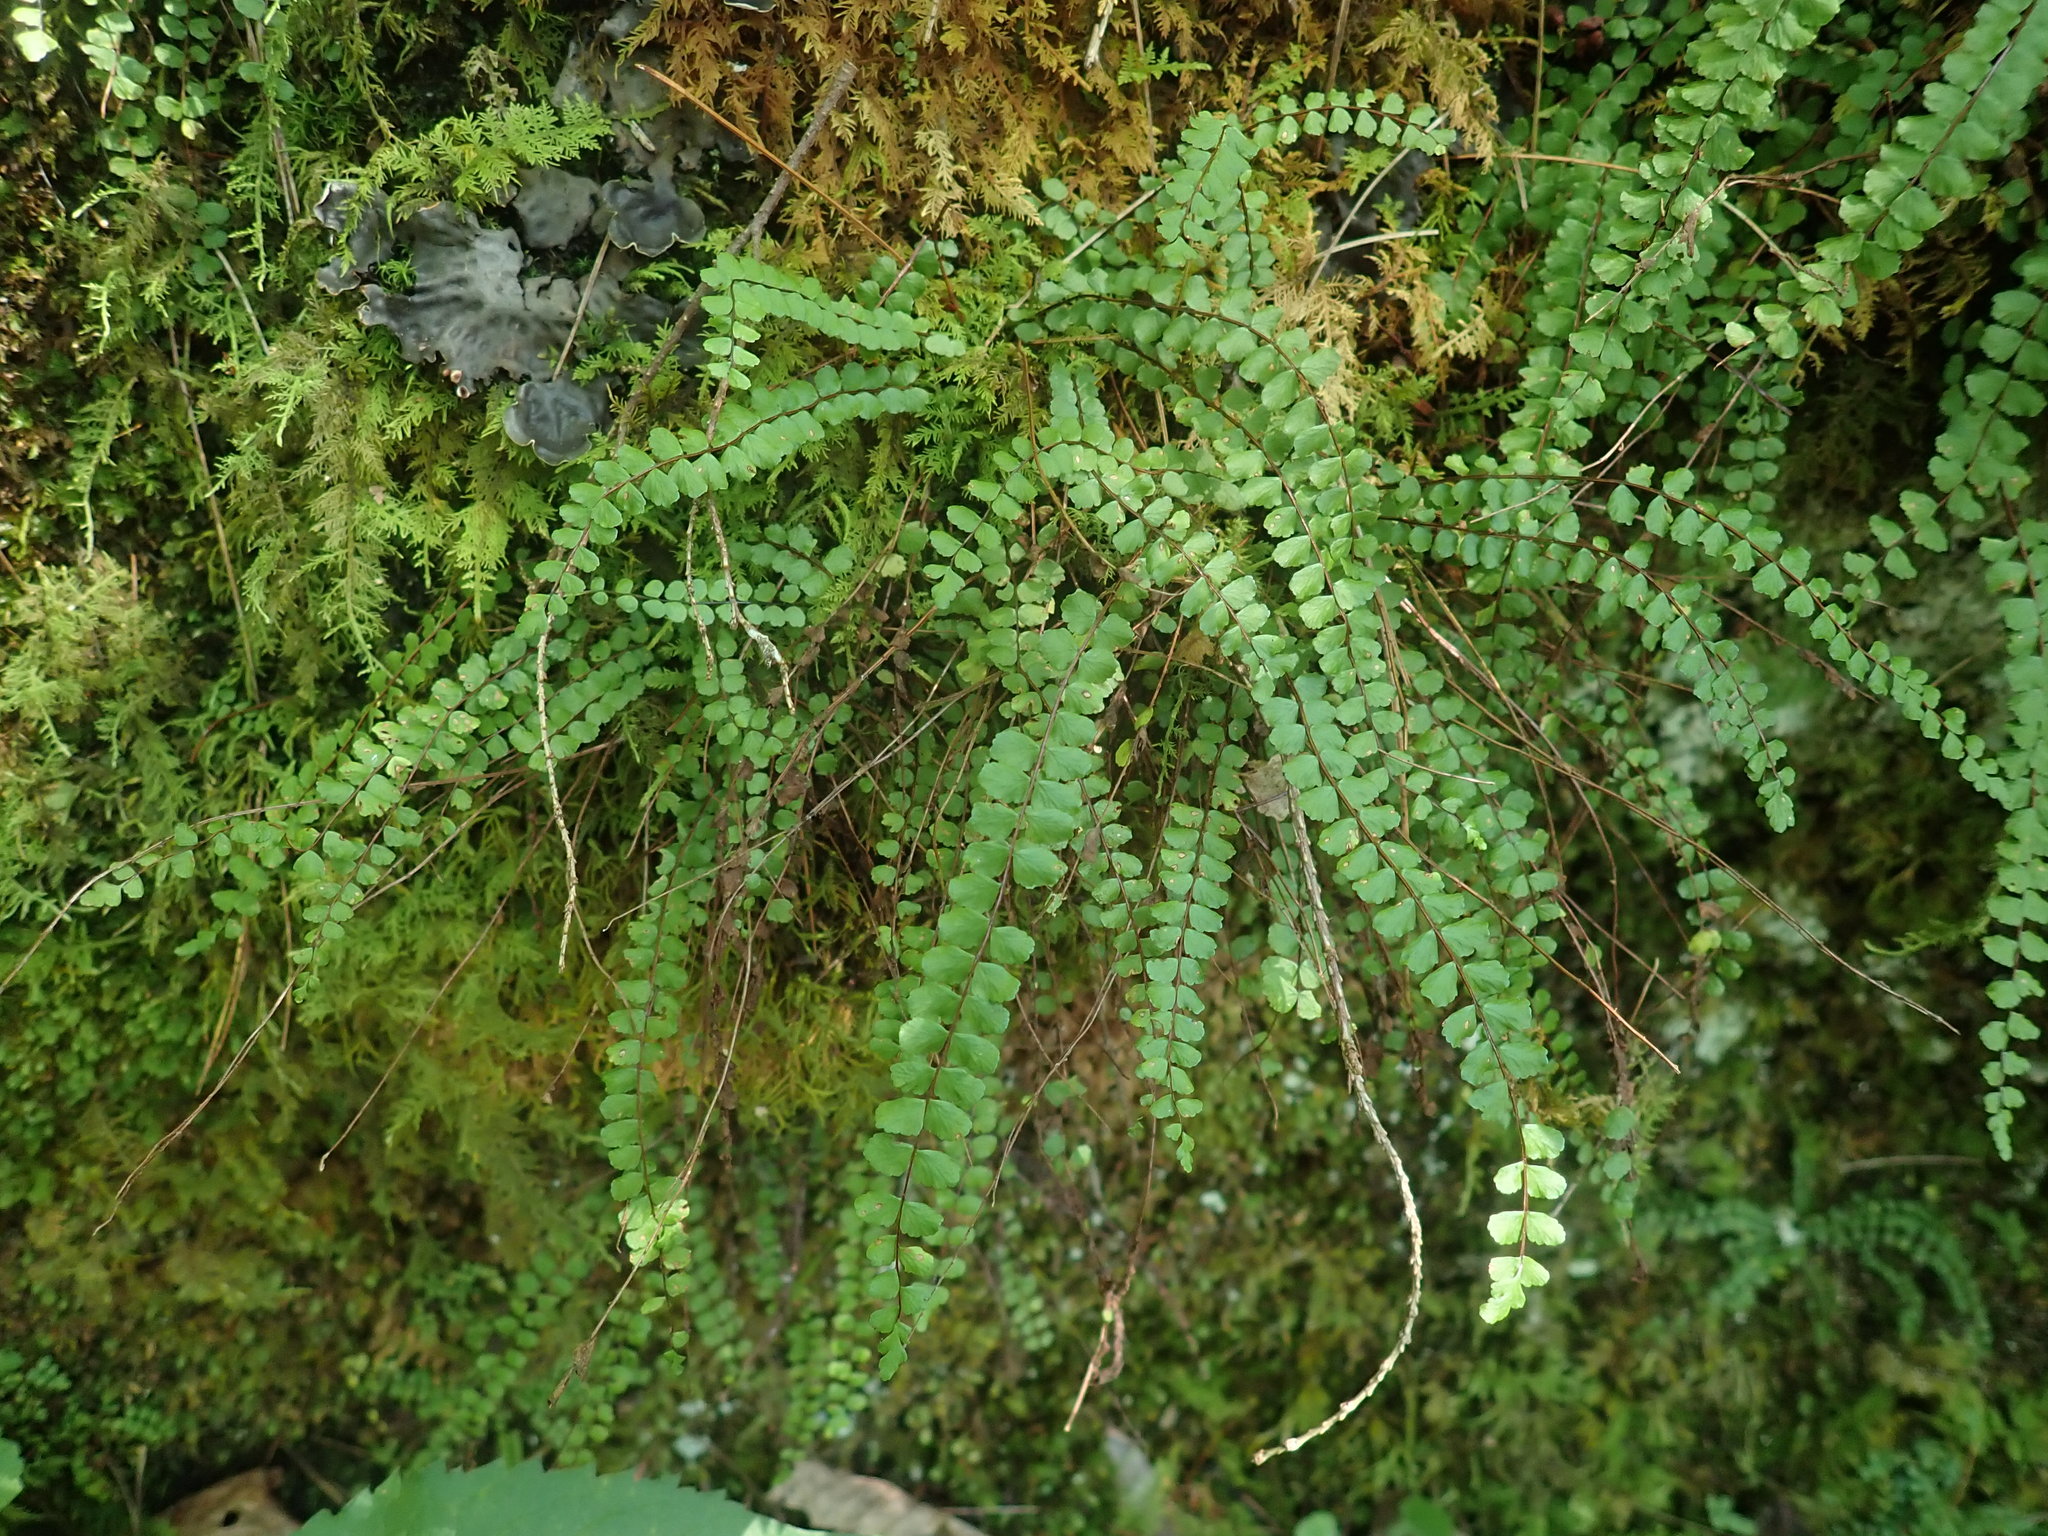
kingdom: Plantae
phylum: Tracheophyta
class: Polypodiopsida
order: Polypodiales
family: Aspleniaceae
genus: Asplenium
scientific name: Asplenium trichomanes
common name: Maidenhair spleenwort
